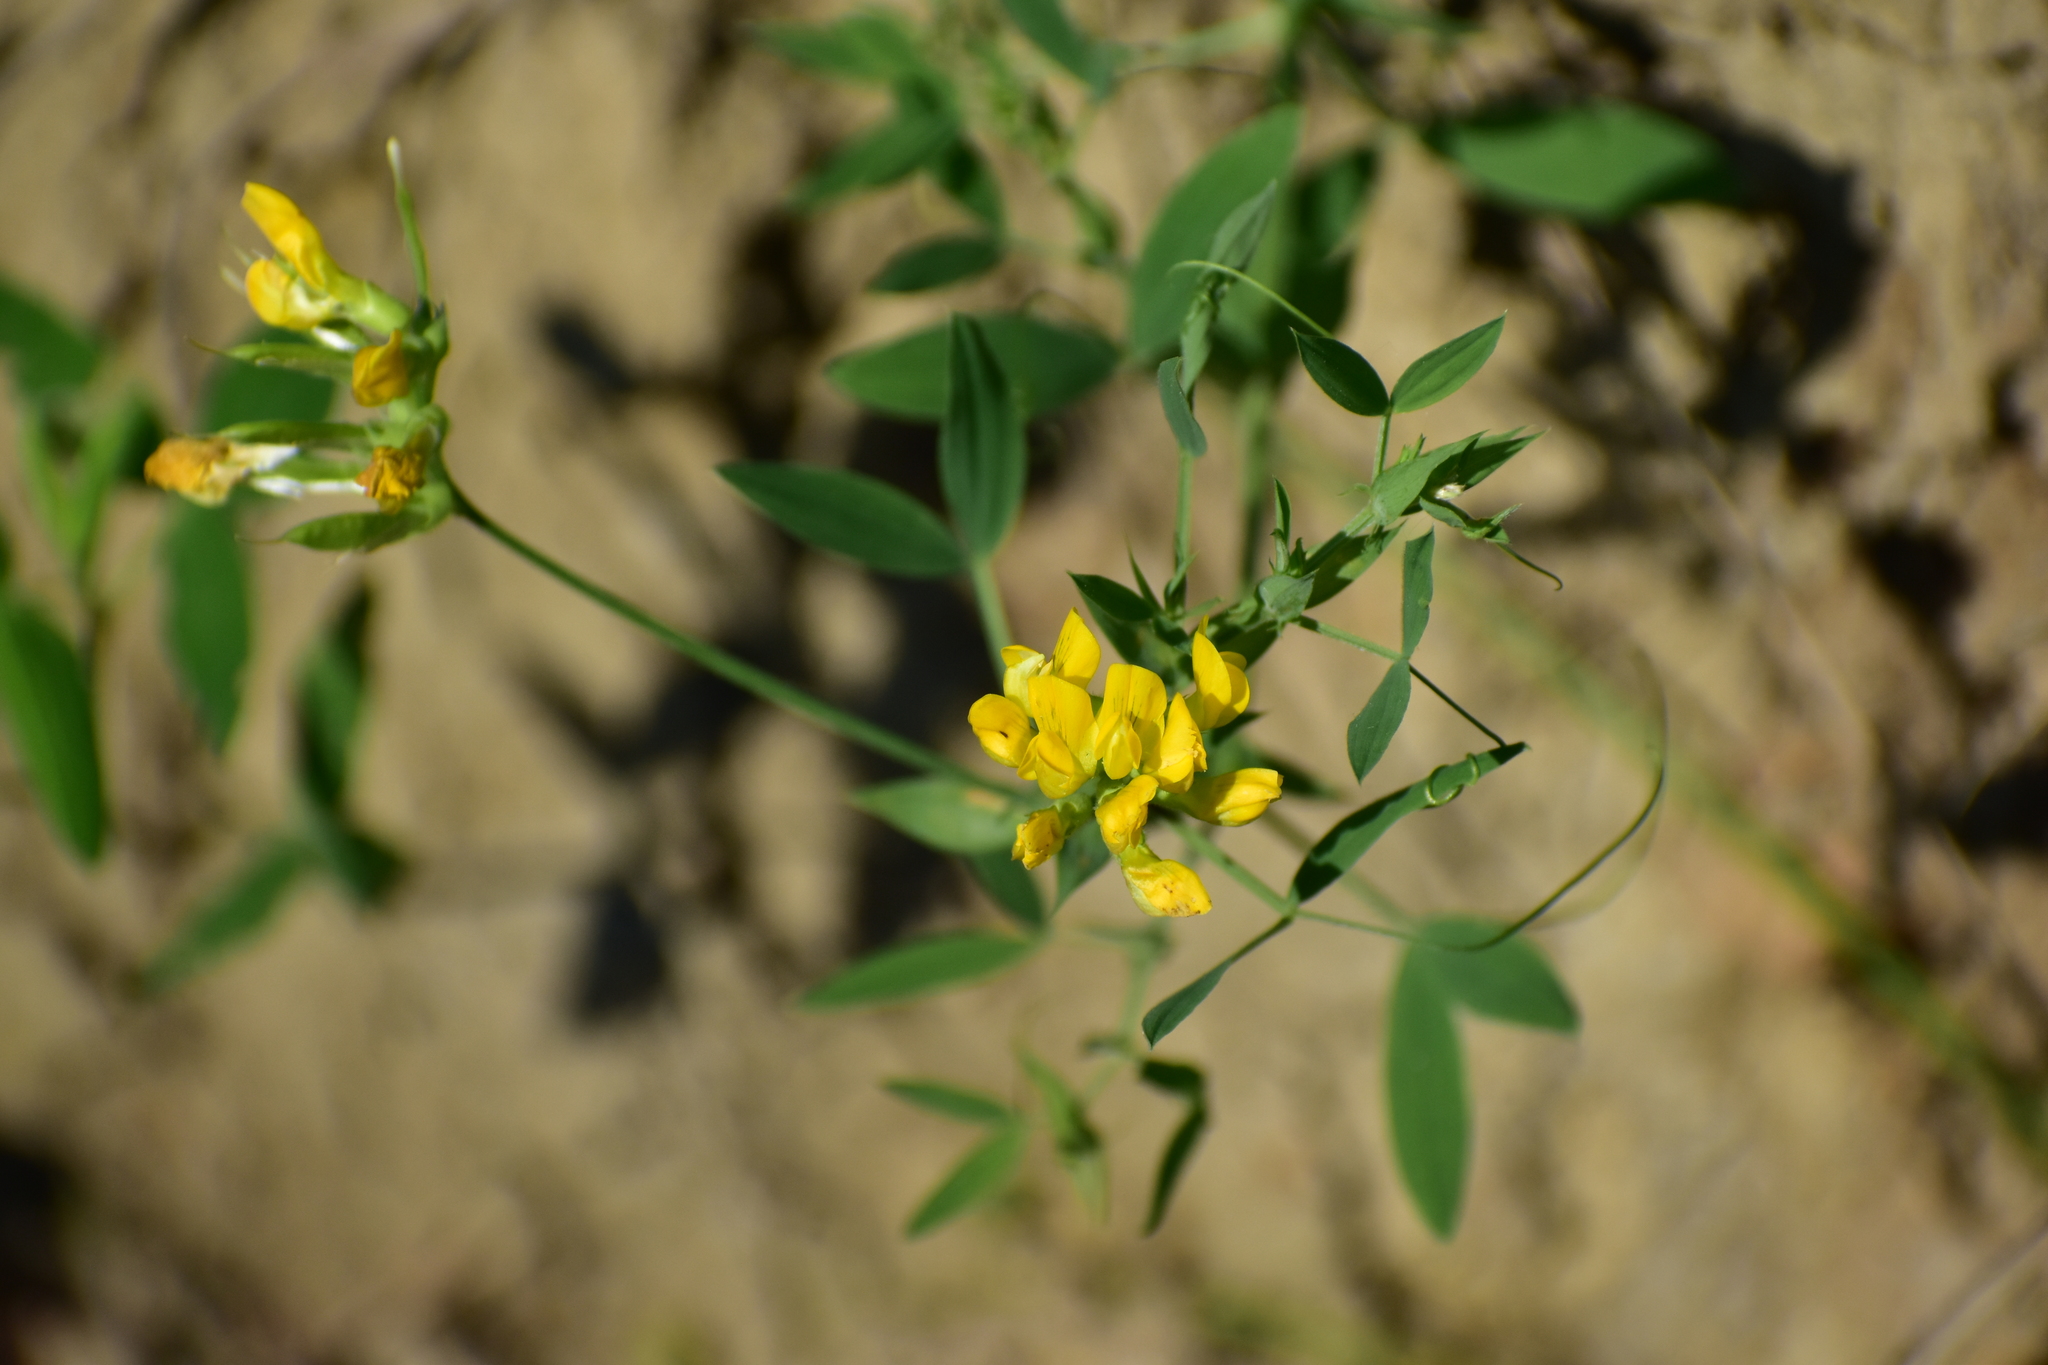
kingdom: Plantae
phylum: Tracheophyta
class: Magnoliopsida
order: Fabales
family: Fabaceae
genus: Lathyrus
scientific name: Lathyrus pratensis
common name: Meadow vetchling
